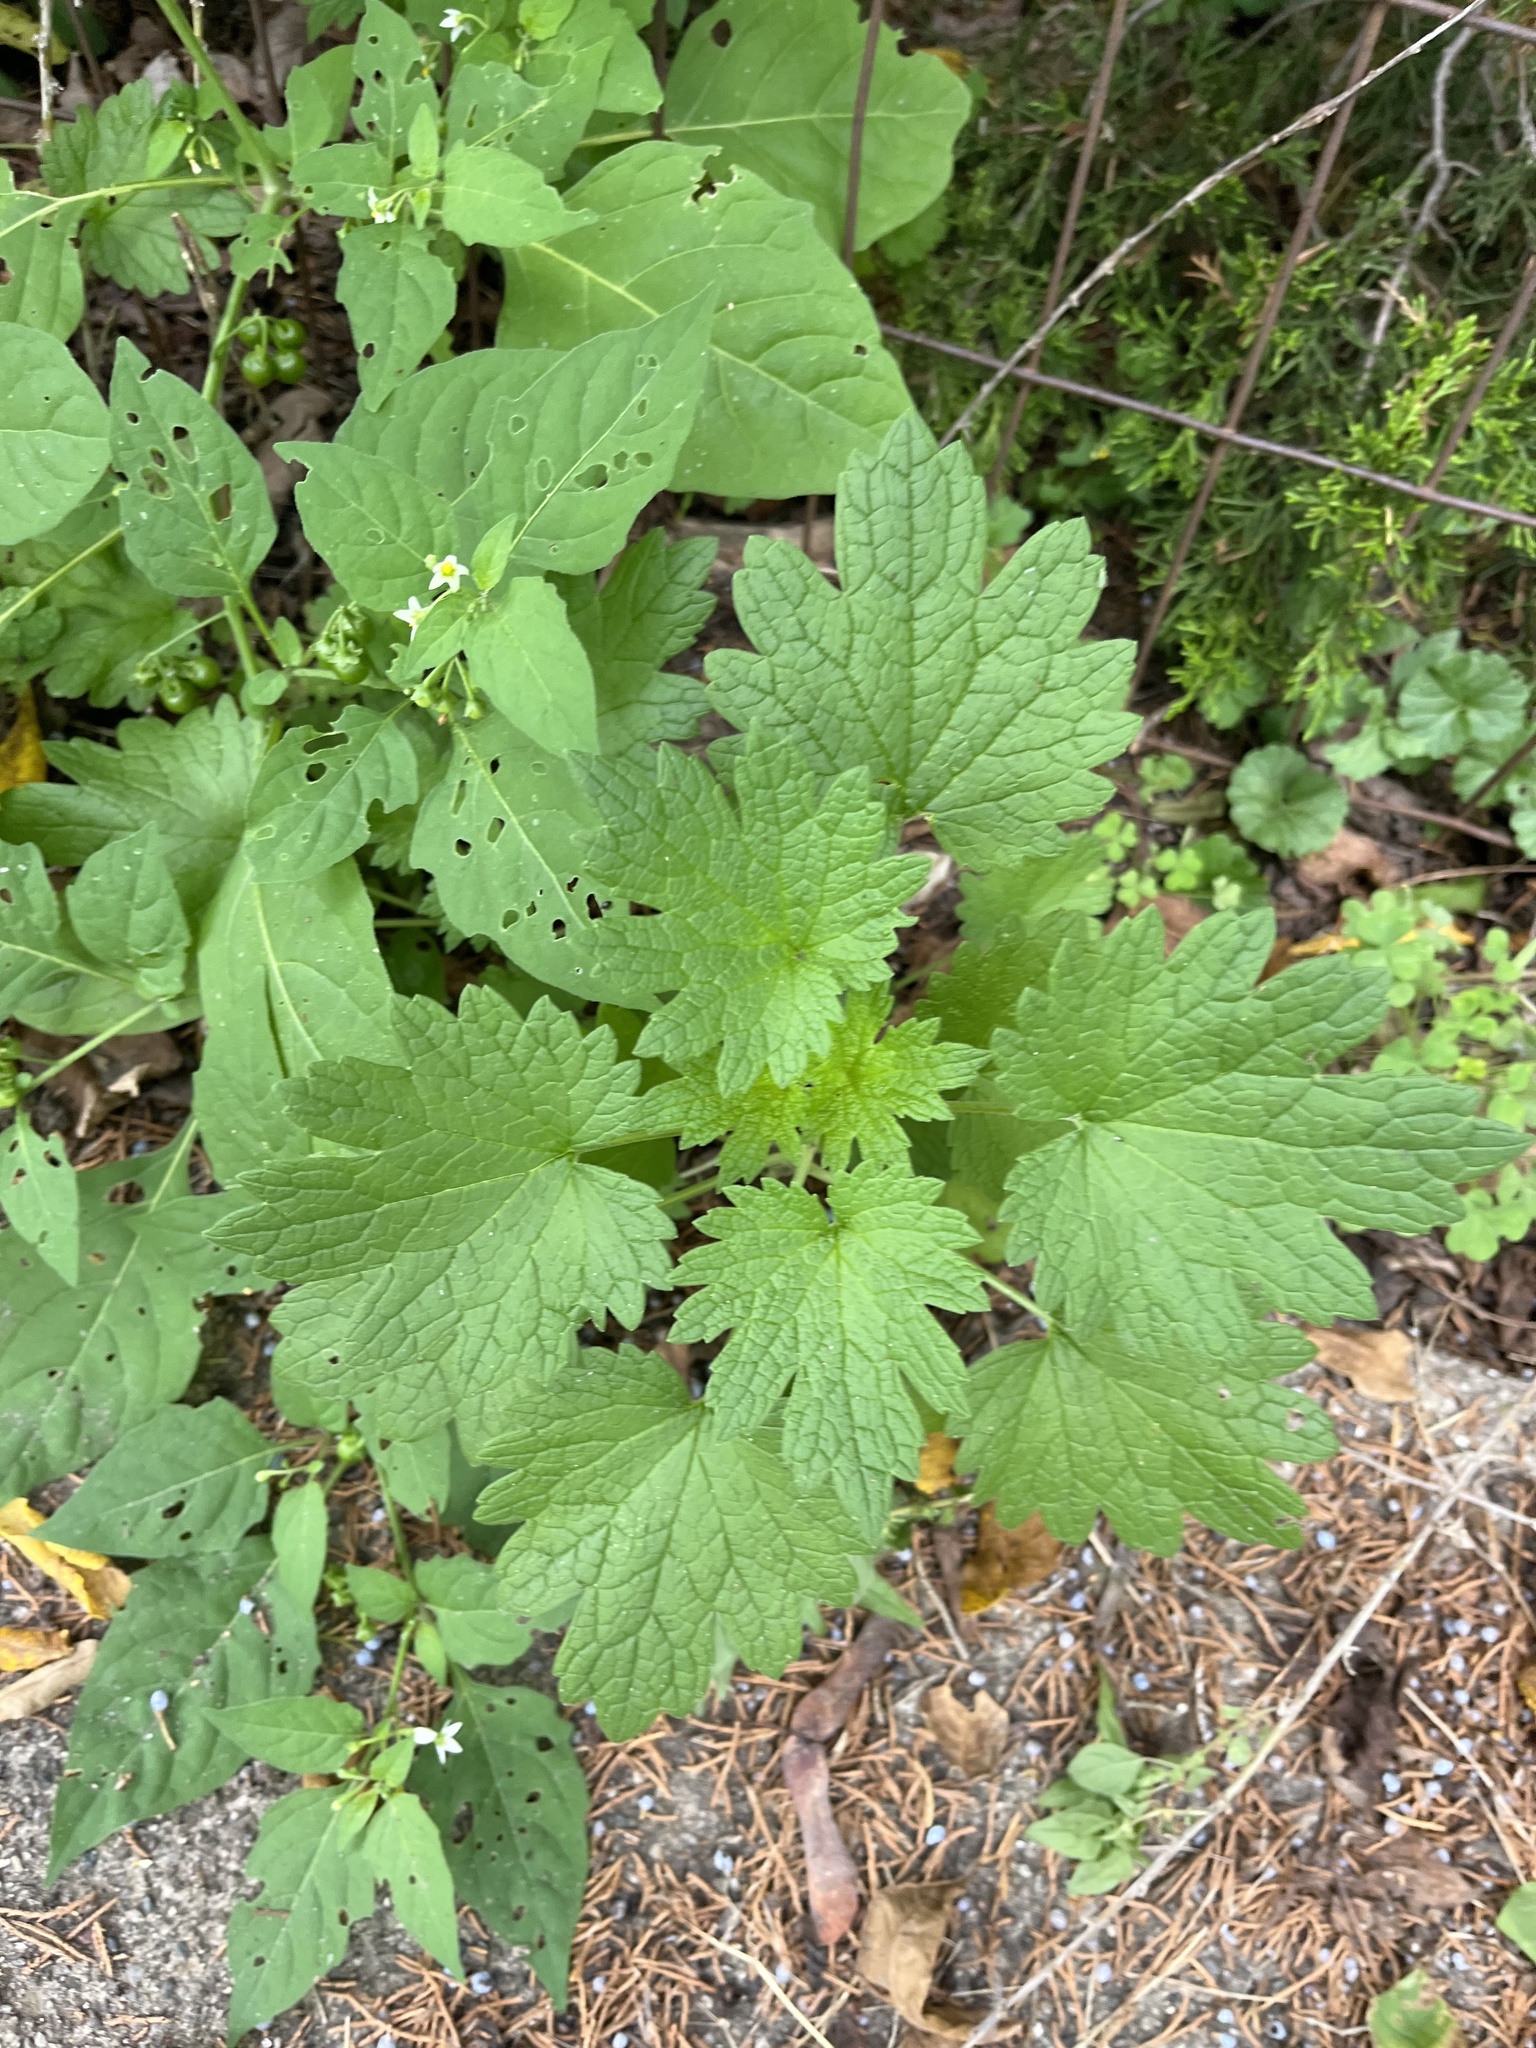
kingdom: Plantae
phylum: Tracheophyta
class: Magnoliopsida
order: Lamiales
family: Lamiaceae
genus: Leonurus
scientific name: Leonurus cardiaca
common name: Motherwort
